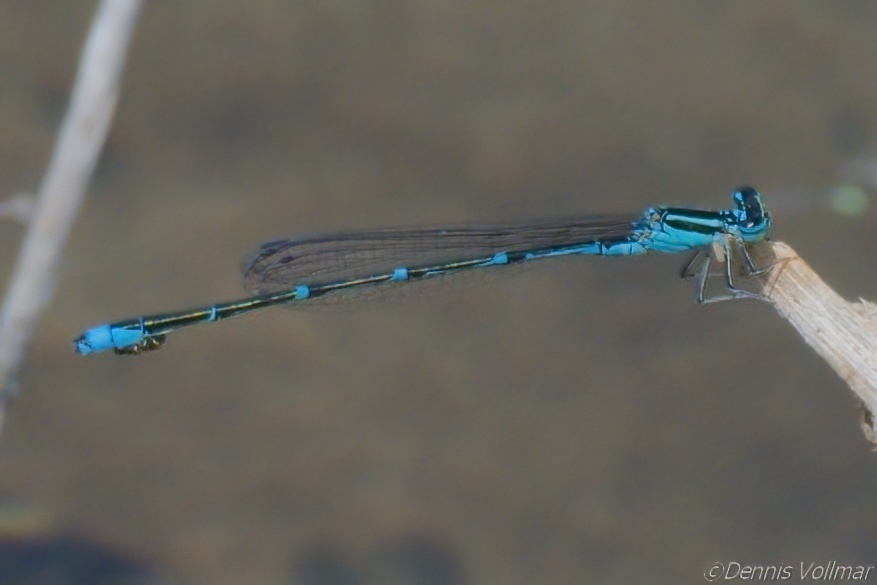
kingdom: Animalia
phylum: Arthropoda
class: Insecta
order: Odonata
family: Coenagrionidae
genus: Enallagma
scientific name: Enallagma exsulans
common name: Stream bluet
